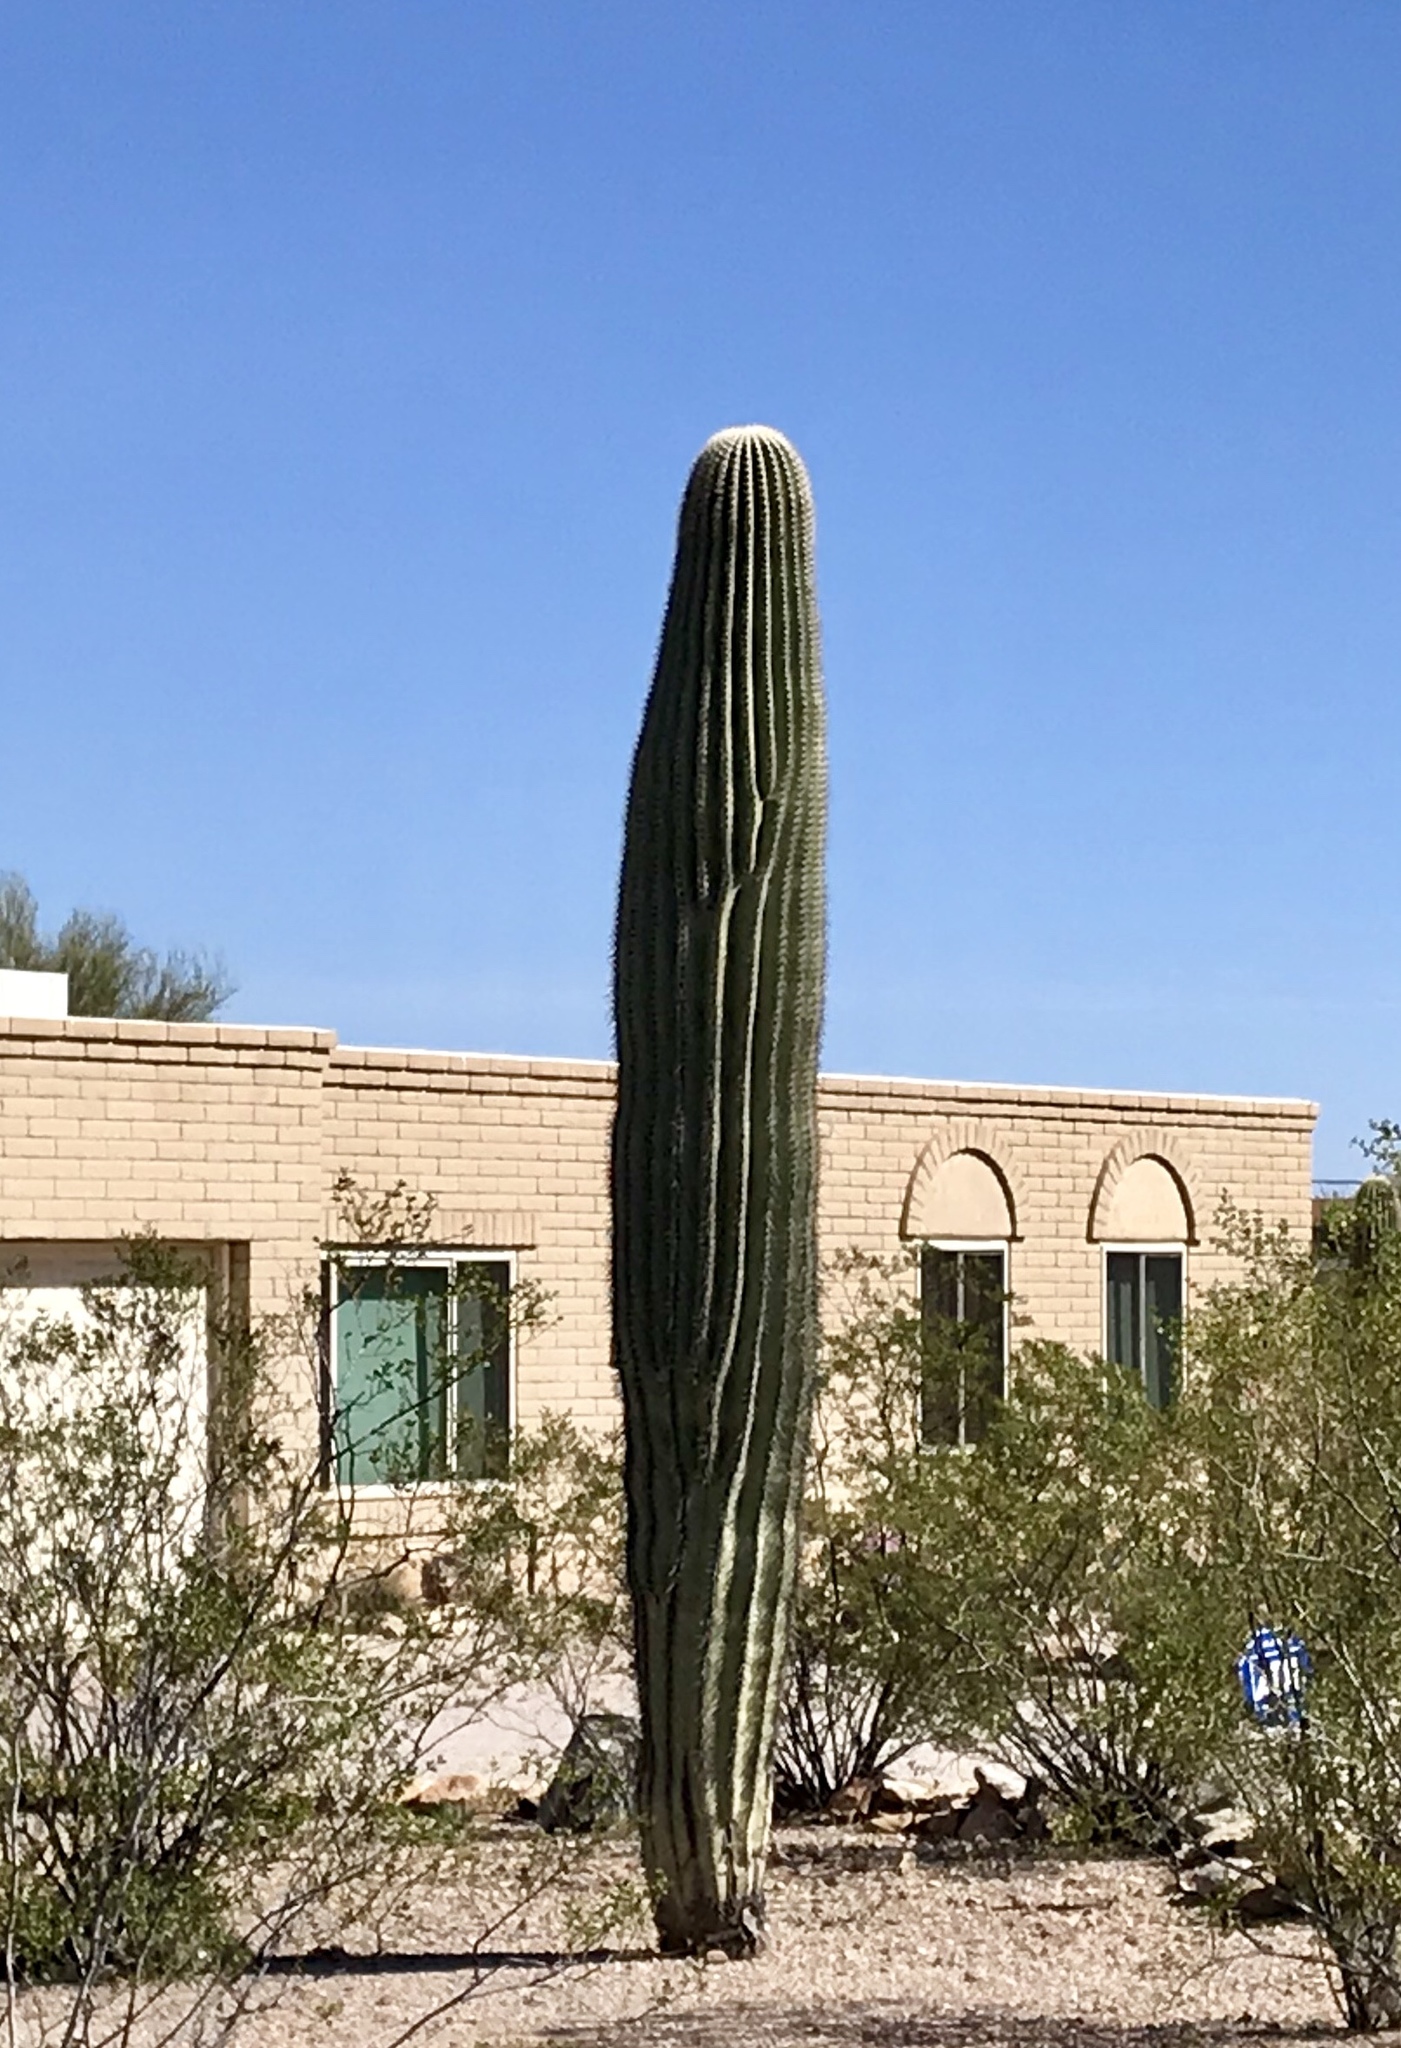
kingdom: Plantae
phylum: Tracheophyta
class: Magnoliopsida
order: Caryophyllales
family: Cactaceae
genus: Carnegiea
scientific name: Carnegiea gigantea
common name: Saguaro
